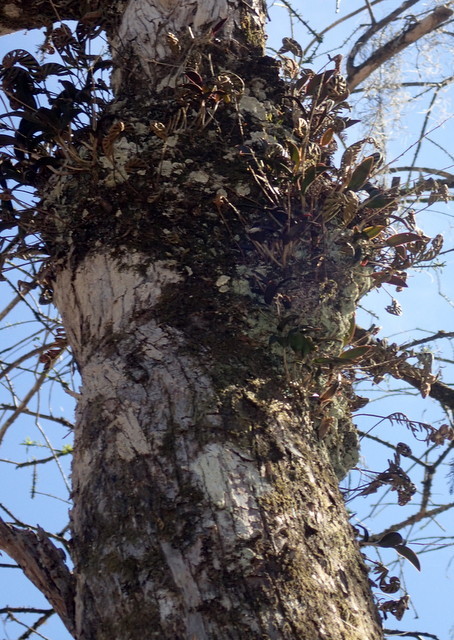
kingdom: Plantae
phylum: Tracheophyta
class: Liliopsida
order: Asparagales
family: Orchidaceae
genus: Epidendrum
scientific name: Epidendrum conopseum
